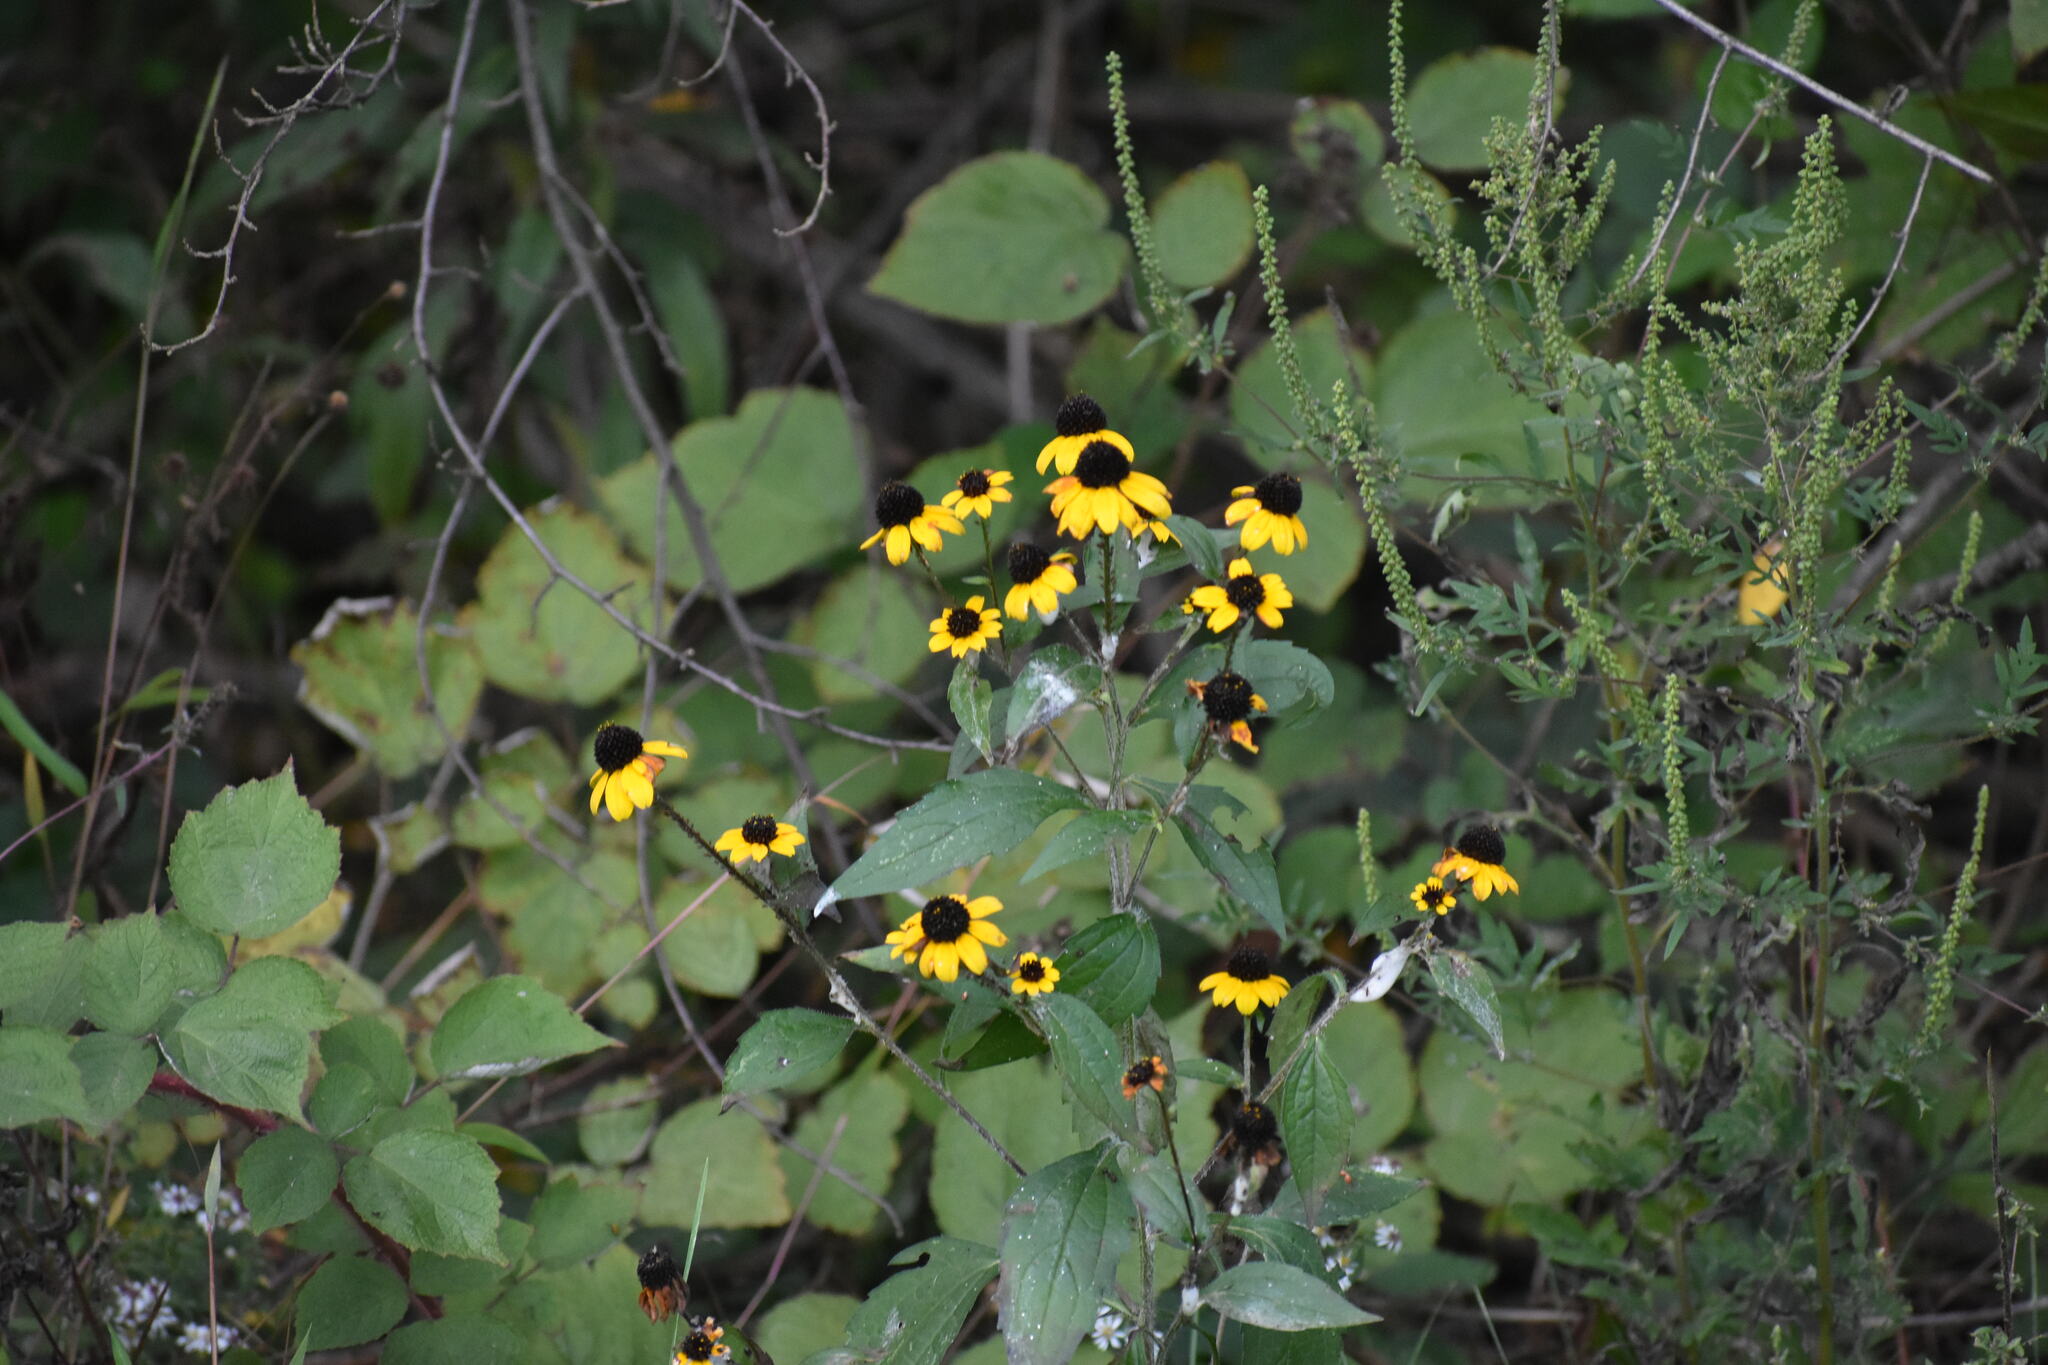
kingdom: Plantae
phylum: Tracheophyta
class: Magnoliopsida
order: Asterales
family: Asteraceae
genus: Rudbeckia
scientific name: Rudbeckia triloba
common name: Thin-leaved coneflower
